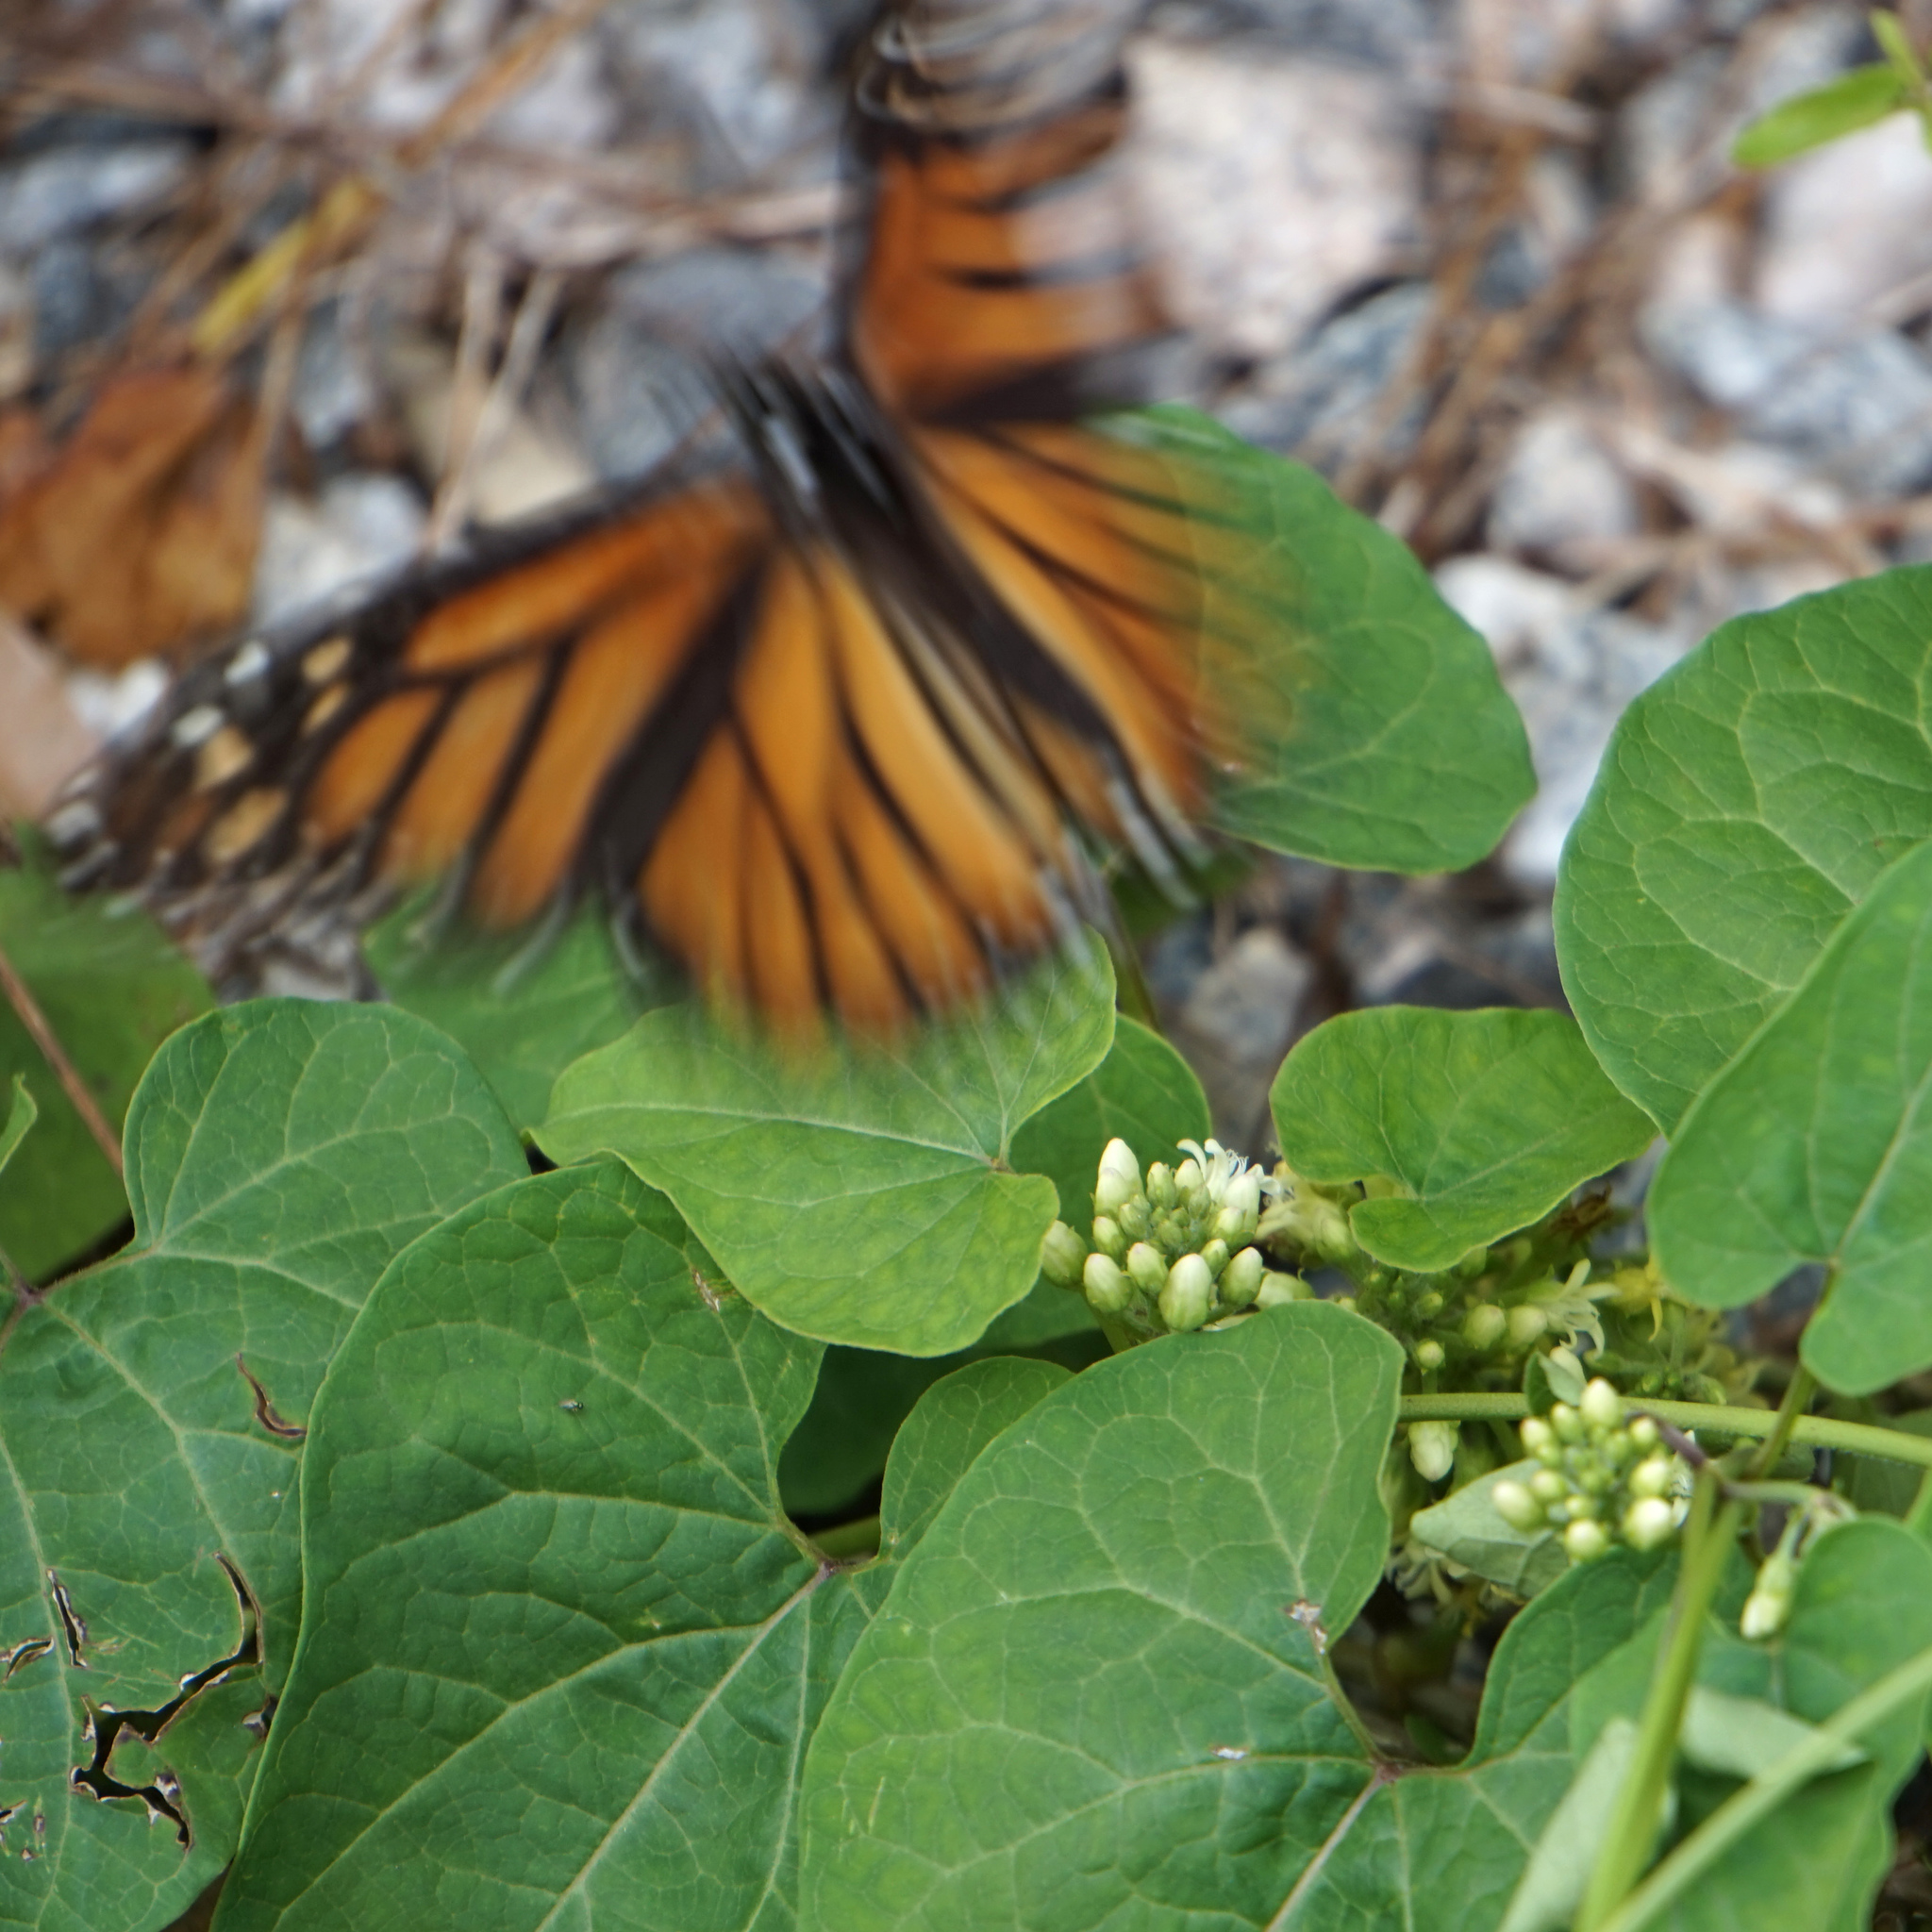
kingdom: Animalia
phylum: Arthropoda
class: Insecta
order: Lepidoptera
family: Nymphalidae
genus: Danaus
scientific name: Danaus plexippus
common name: Monarch
